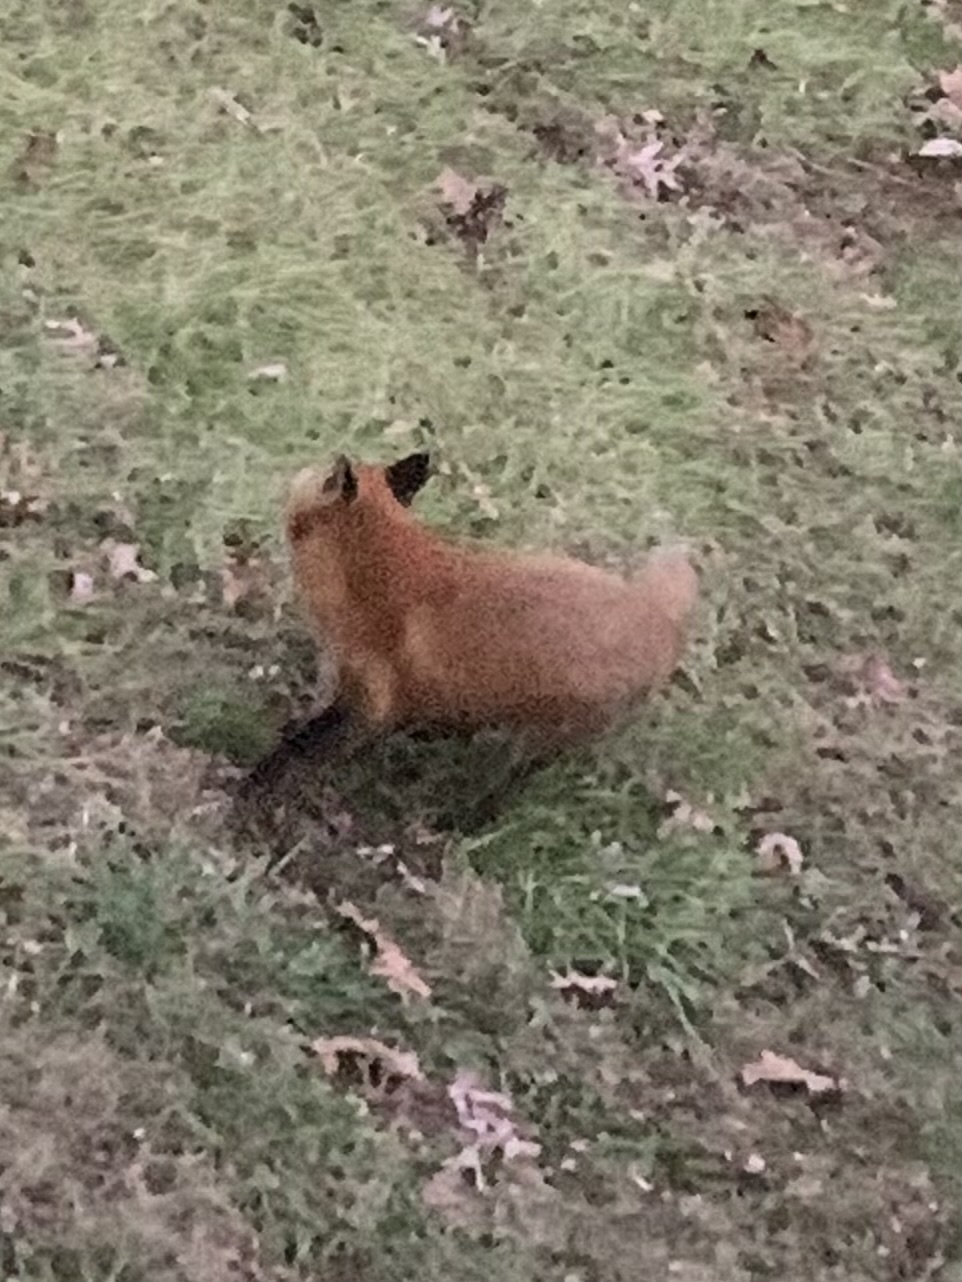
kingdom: Animalia
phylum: Chordata
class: Mammalia
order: Carnivora
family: Canidae
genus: Vulpes
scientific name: Vulpes vulpes
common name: Red fox
